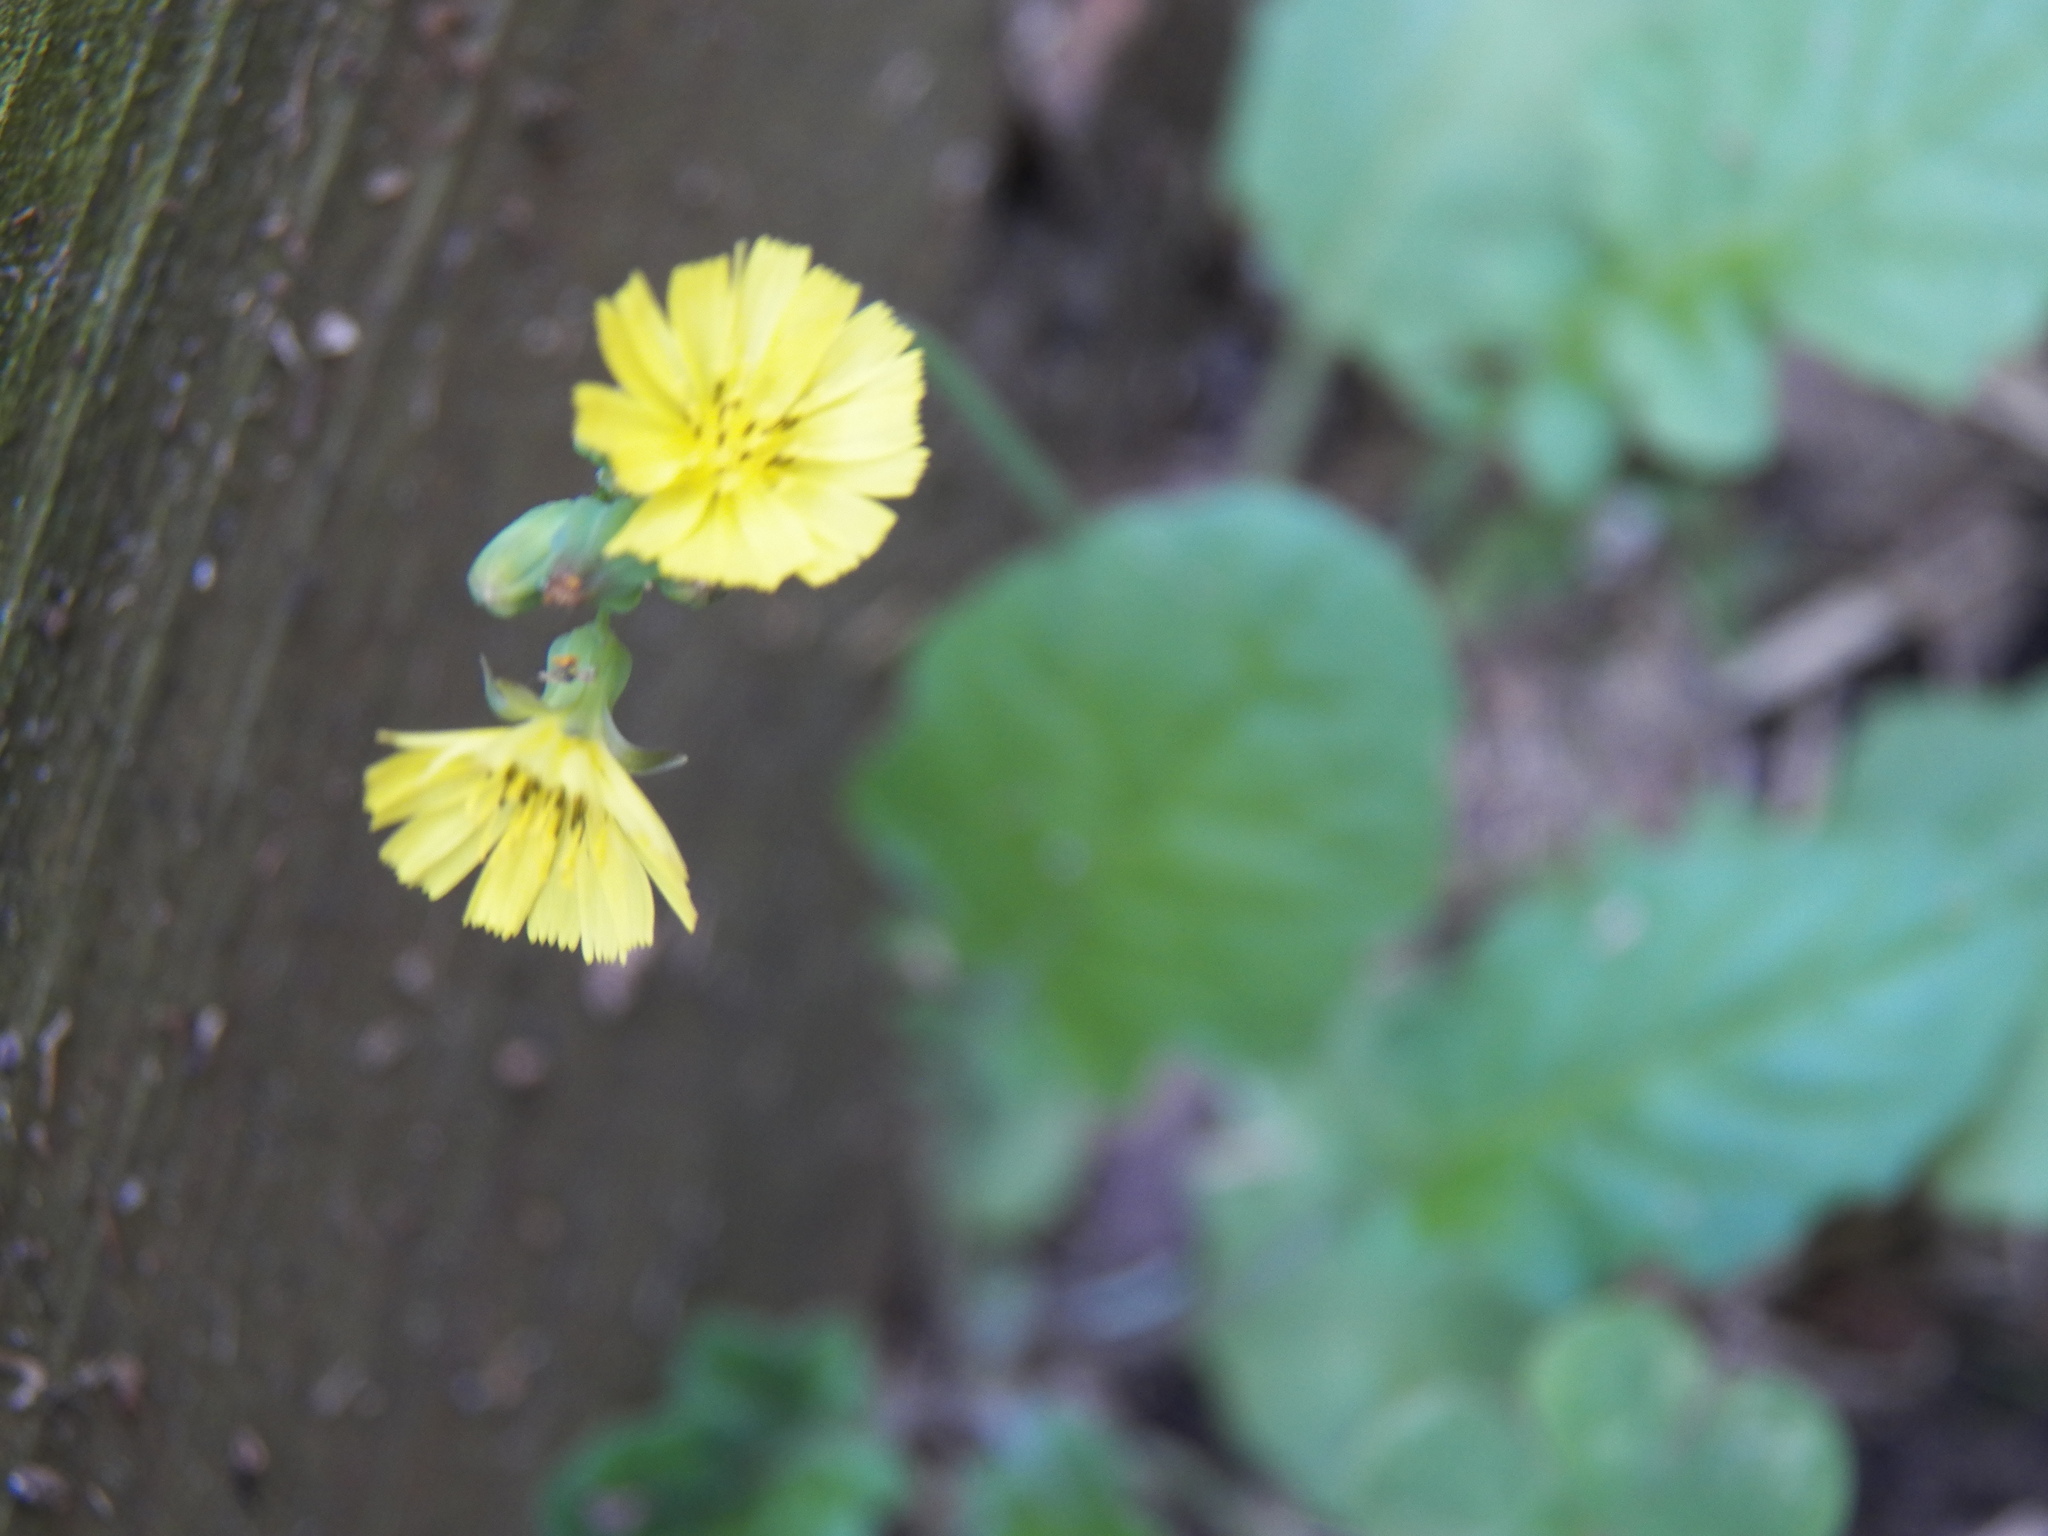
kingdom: Plantae
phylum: Tracheophyta
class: Magnoliopsida
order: Asterales
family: Asteraceae
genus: Youngia
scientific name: Youngia japonica
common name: Oriental false hawksbeard
